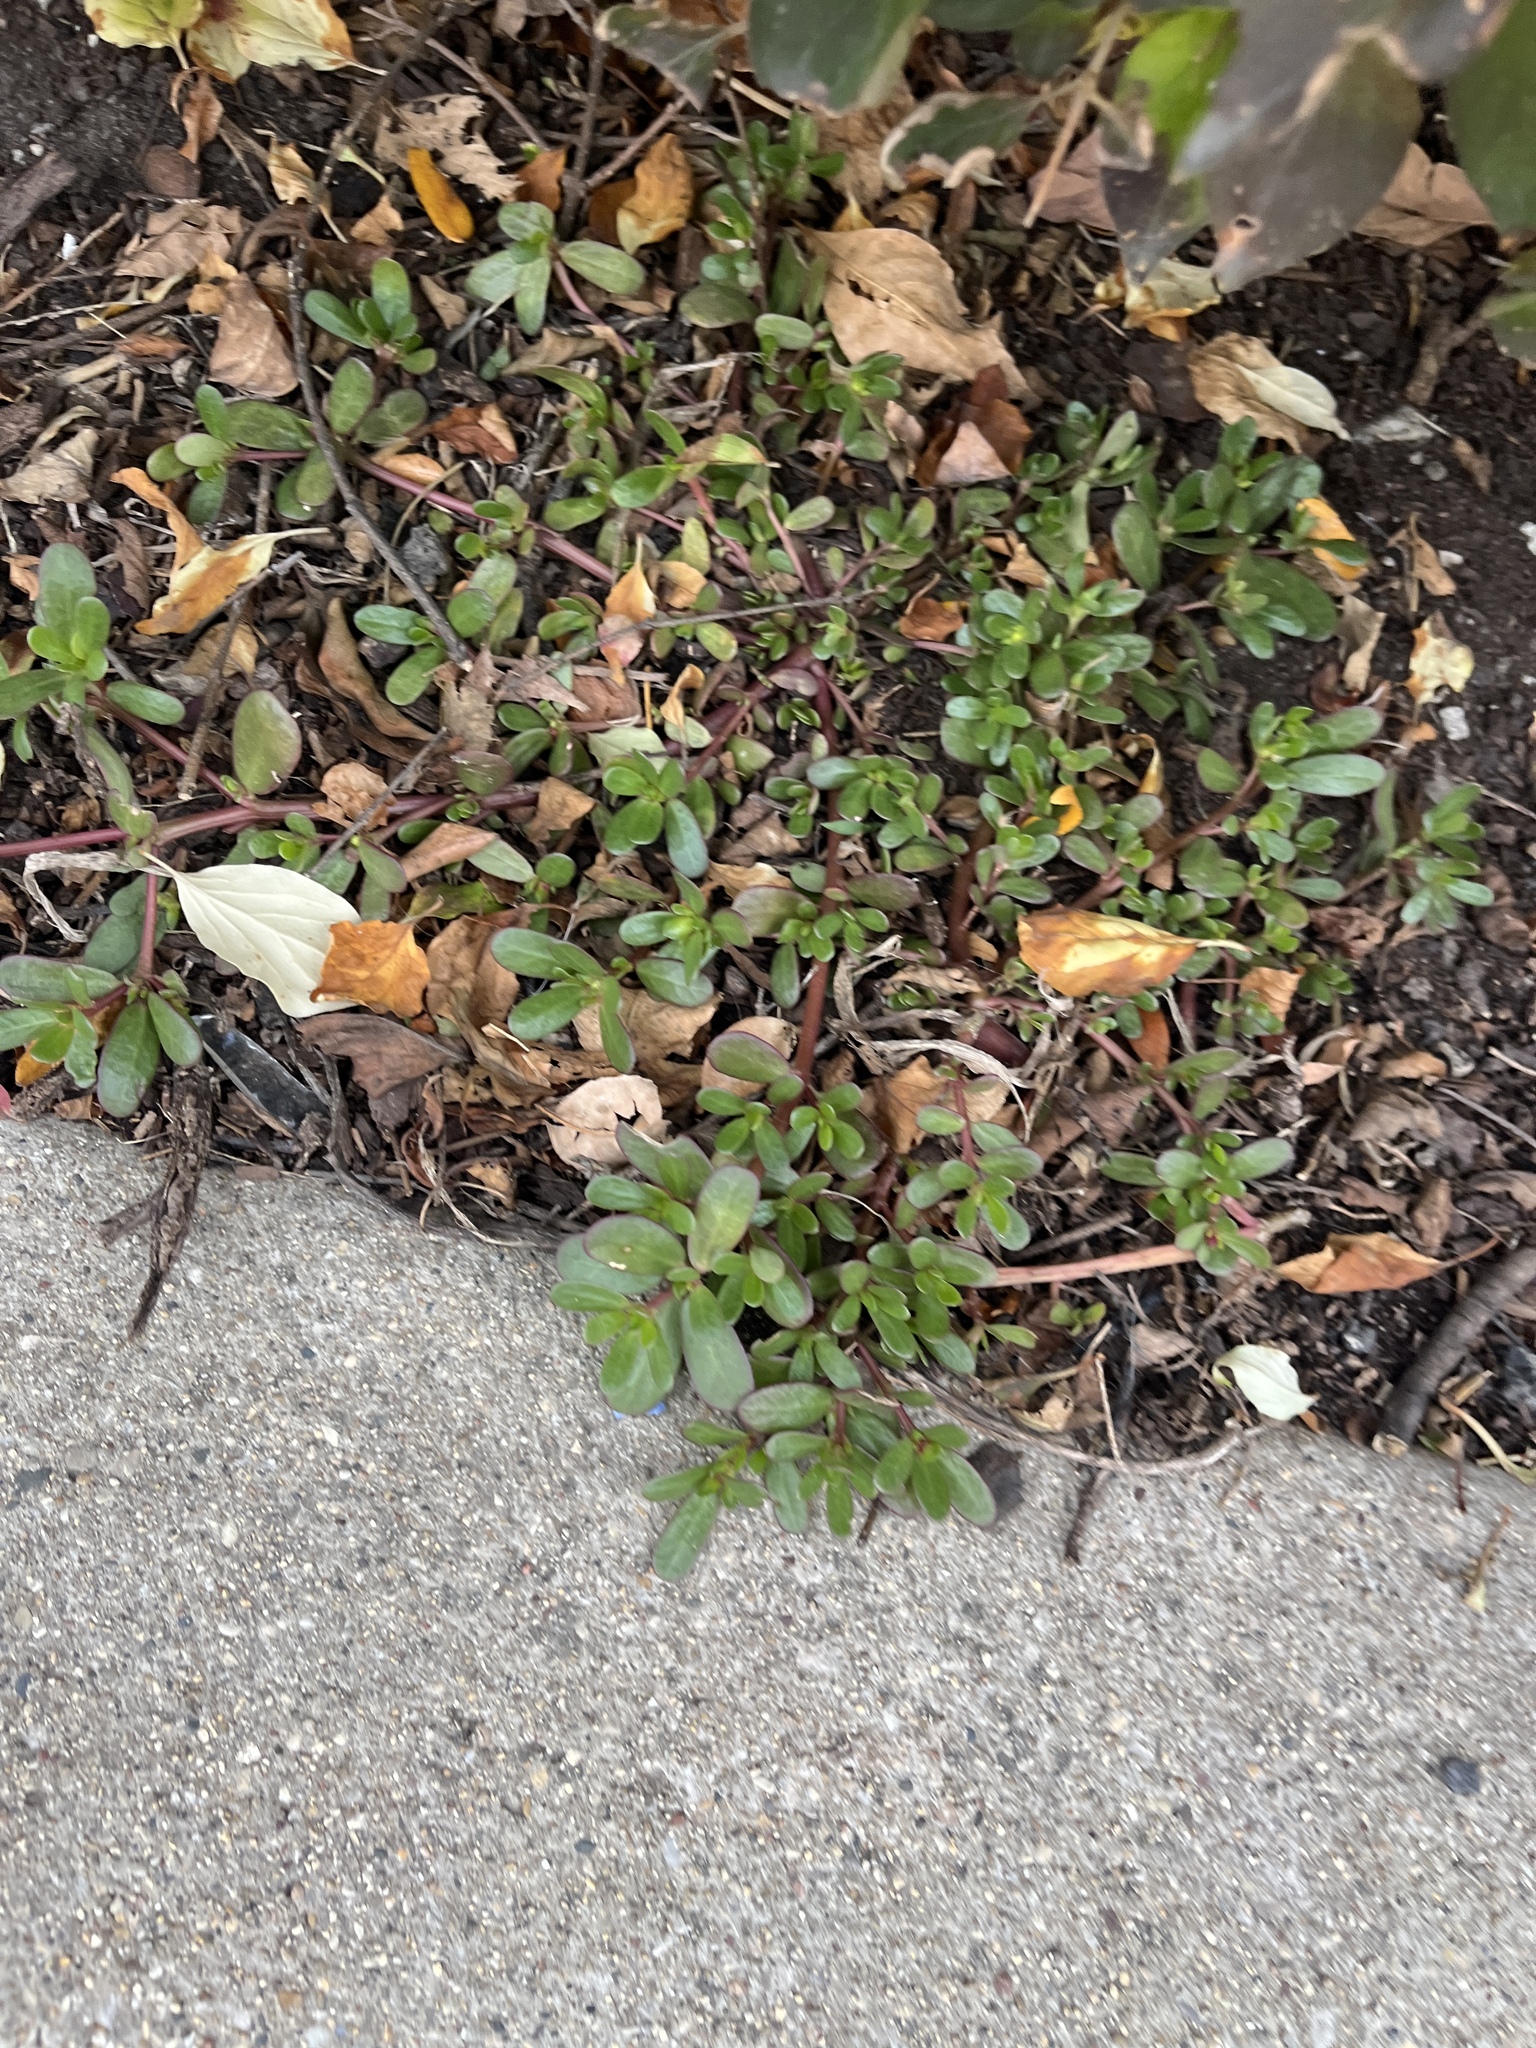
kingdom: Plantae
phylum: Tracheophyta
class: Magnoliopsida
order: Caryophyllales
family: Portulacaceae
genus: Portulaca
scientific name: Portulaca oleracea
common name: Common purslane
